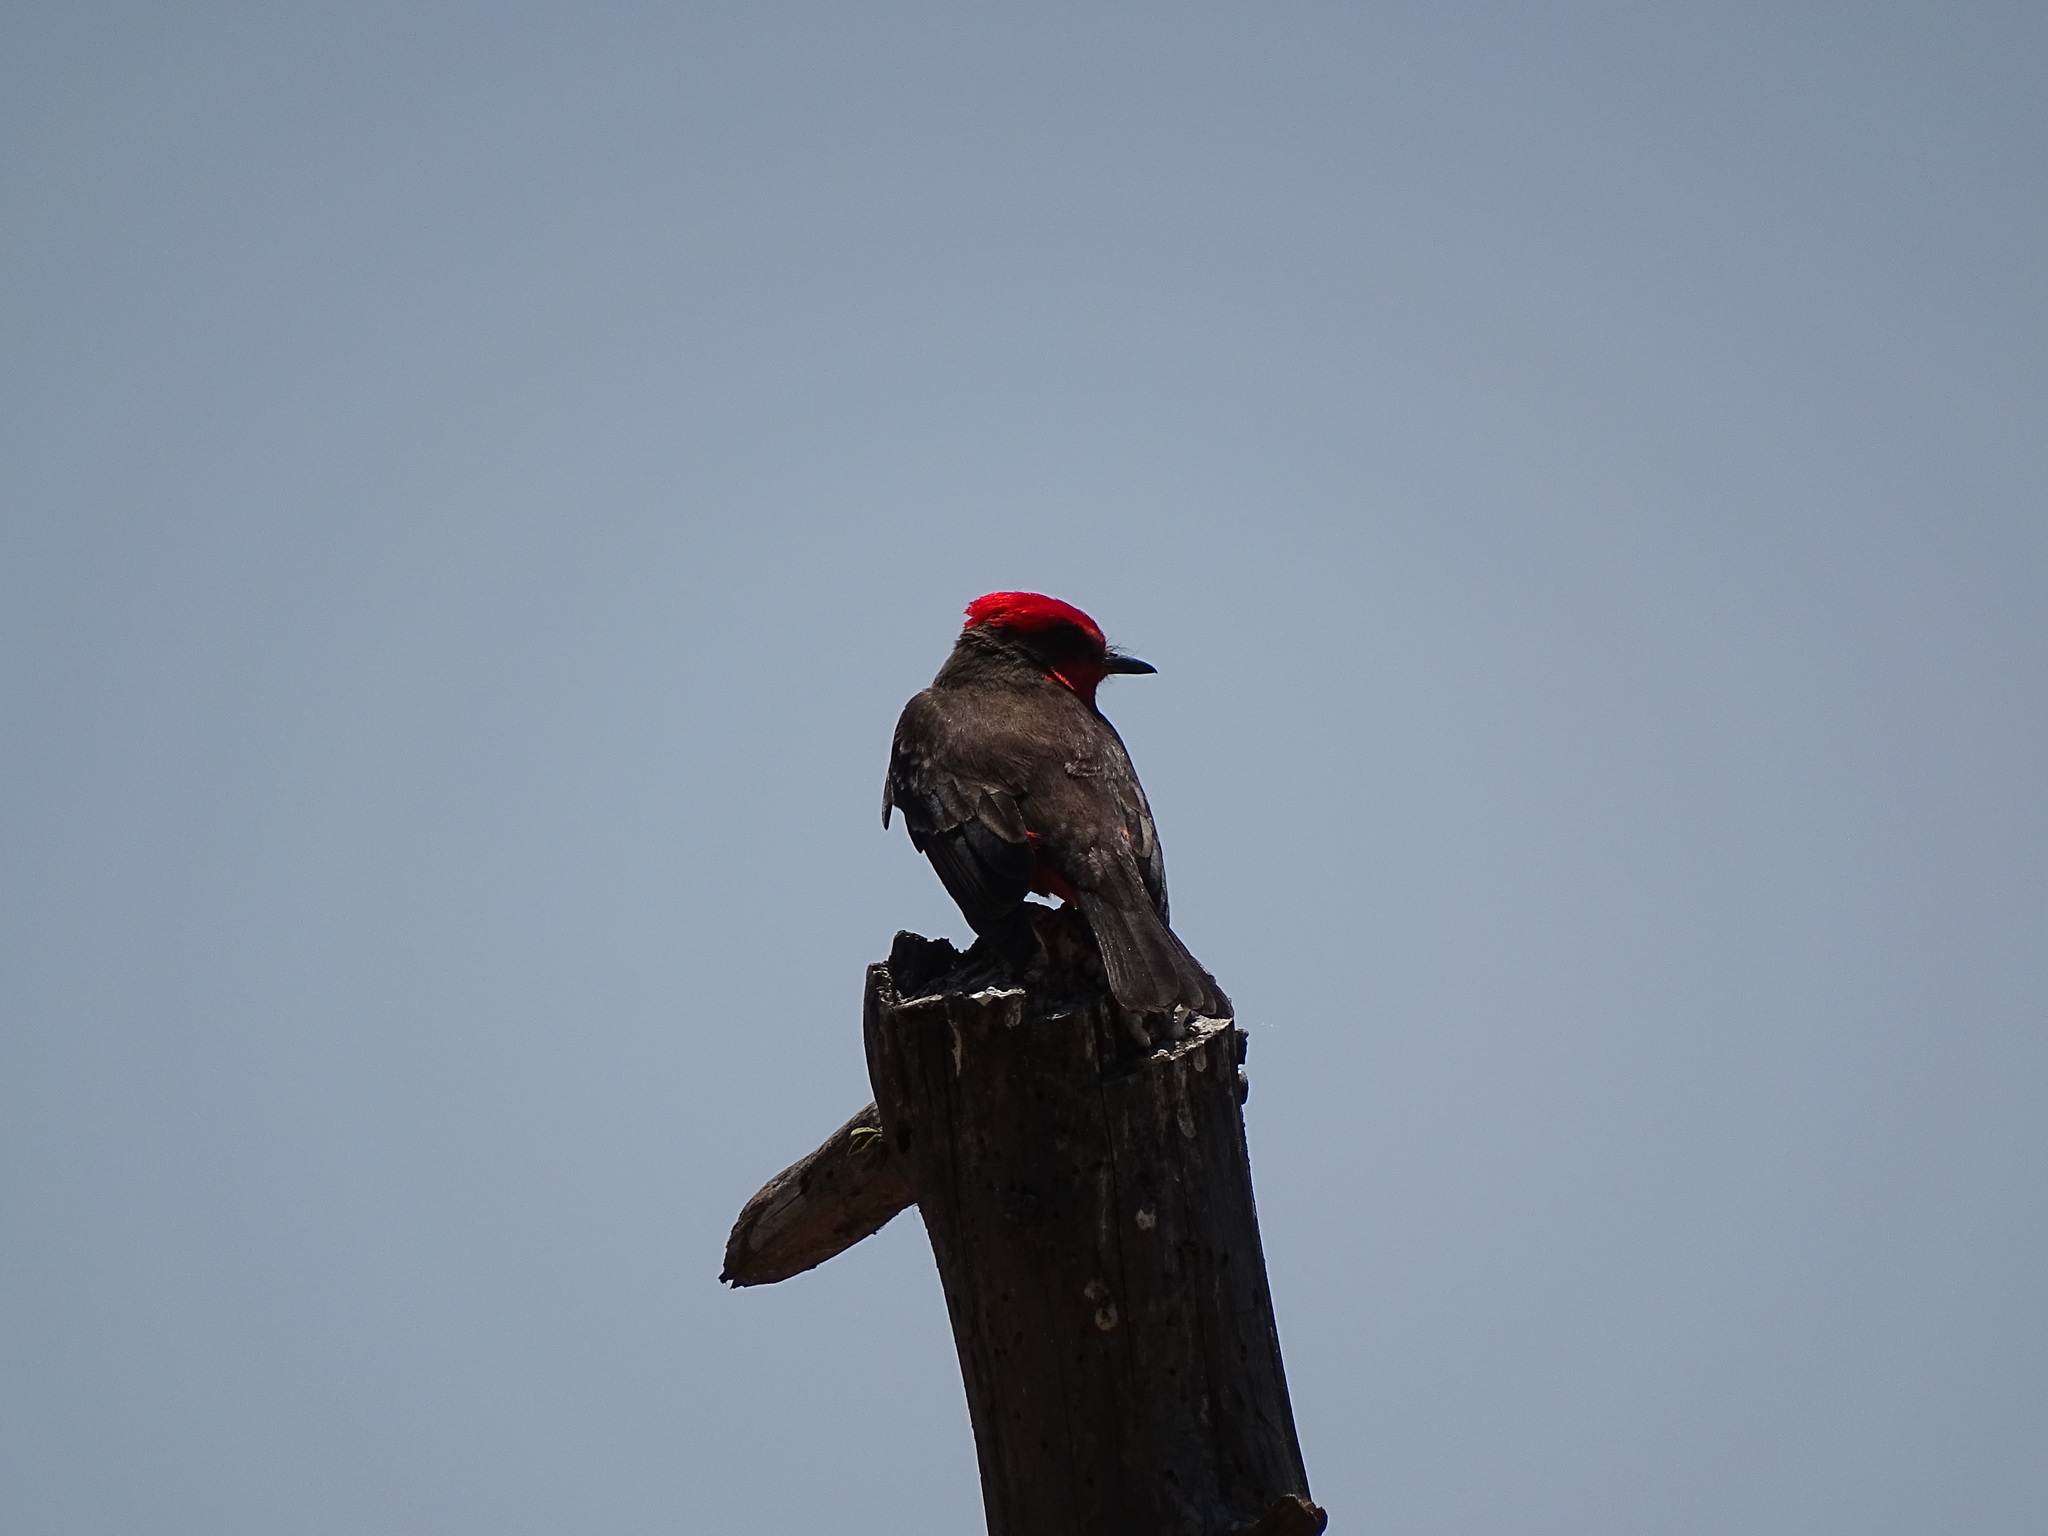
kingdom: Animalia
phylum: Chordata
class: Aves
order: Passeriformes
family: Tyrannidae
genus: Pyrocephalus
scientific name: Pyrocephalus rubinus
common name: Vermilion flycatcher
